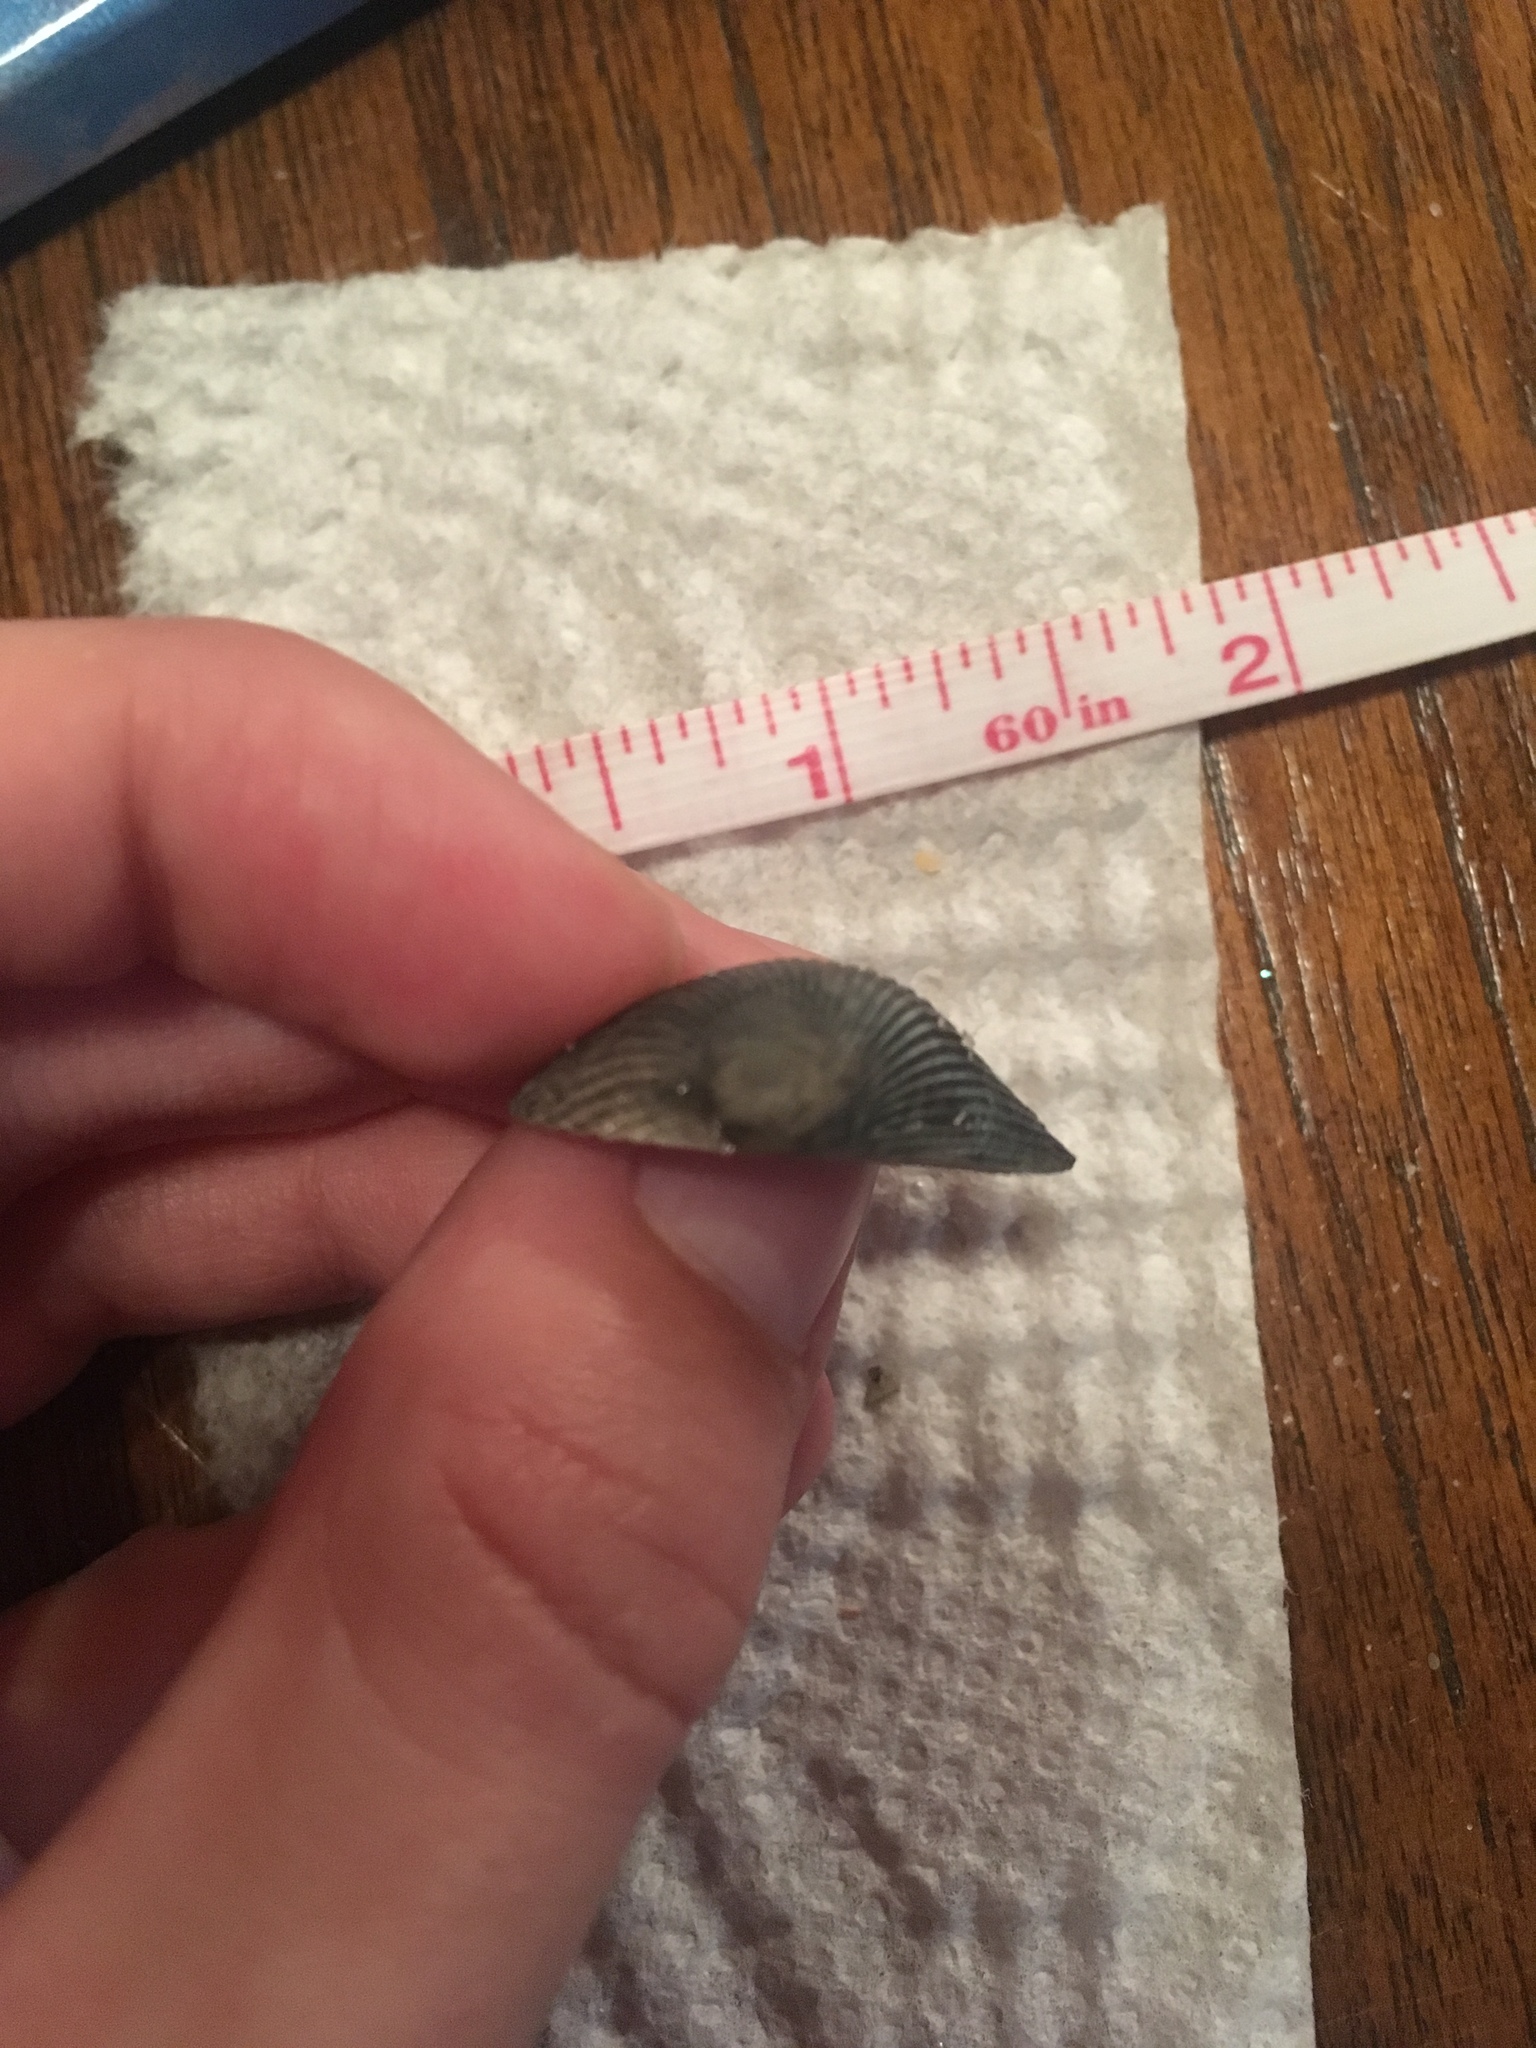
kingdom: Animalia
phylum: Mollusca
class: Bivalvia
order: Arcida
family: Arcidae
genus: Lunarca
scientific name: Lunarca ovalis
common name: Blood ark
